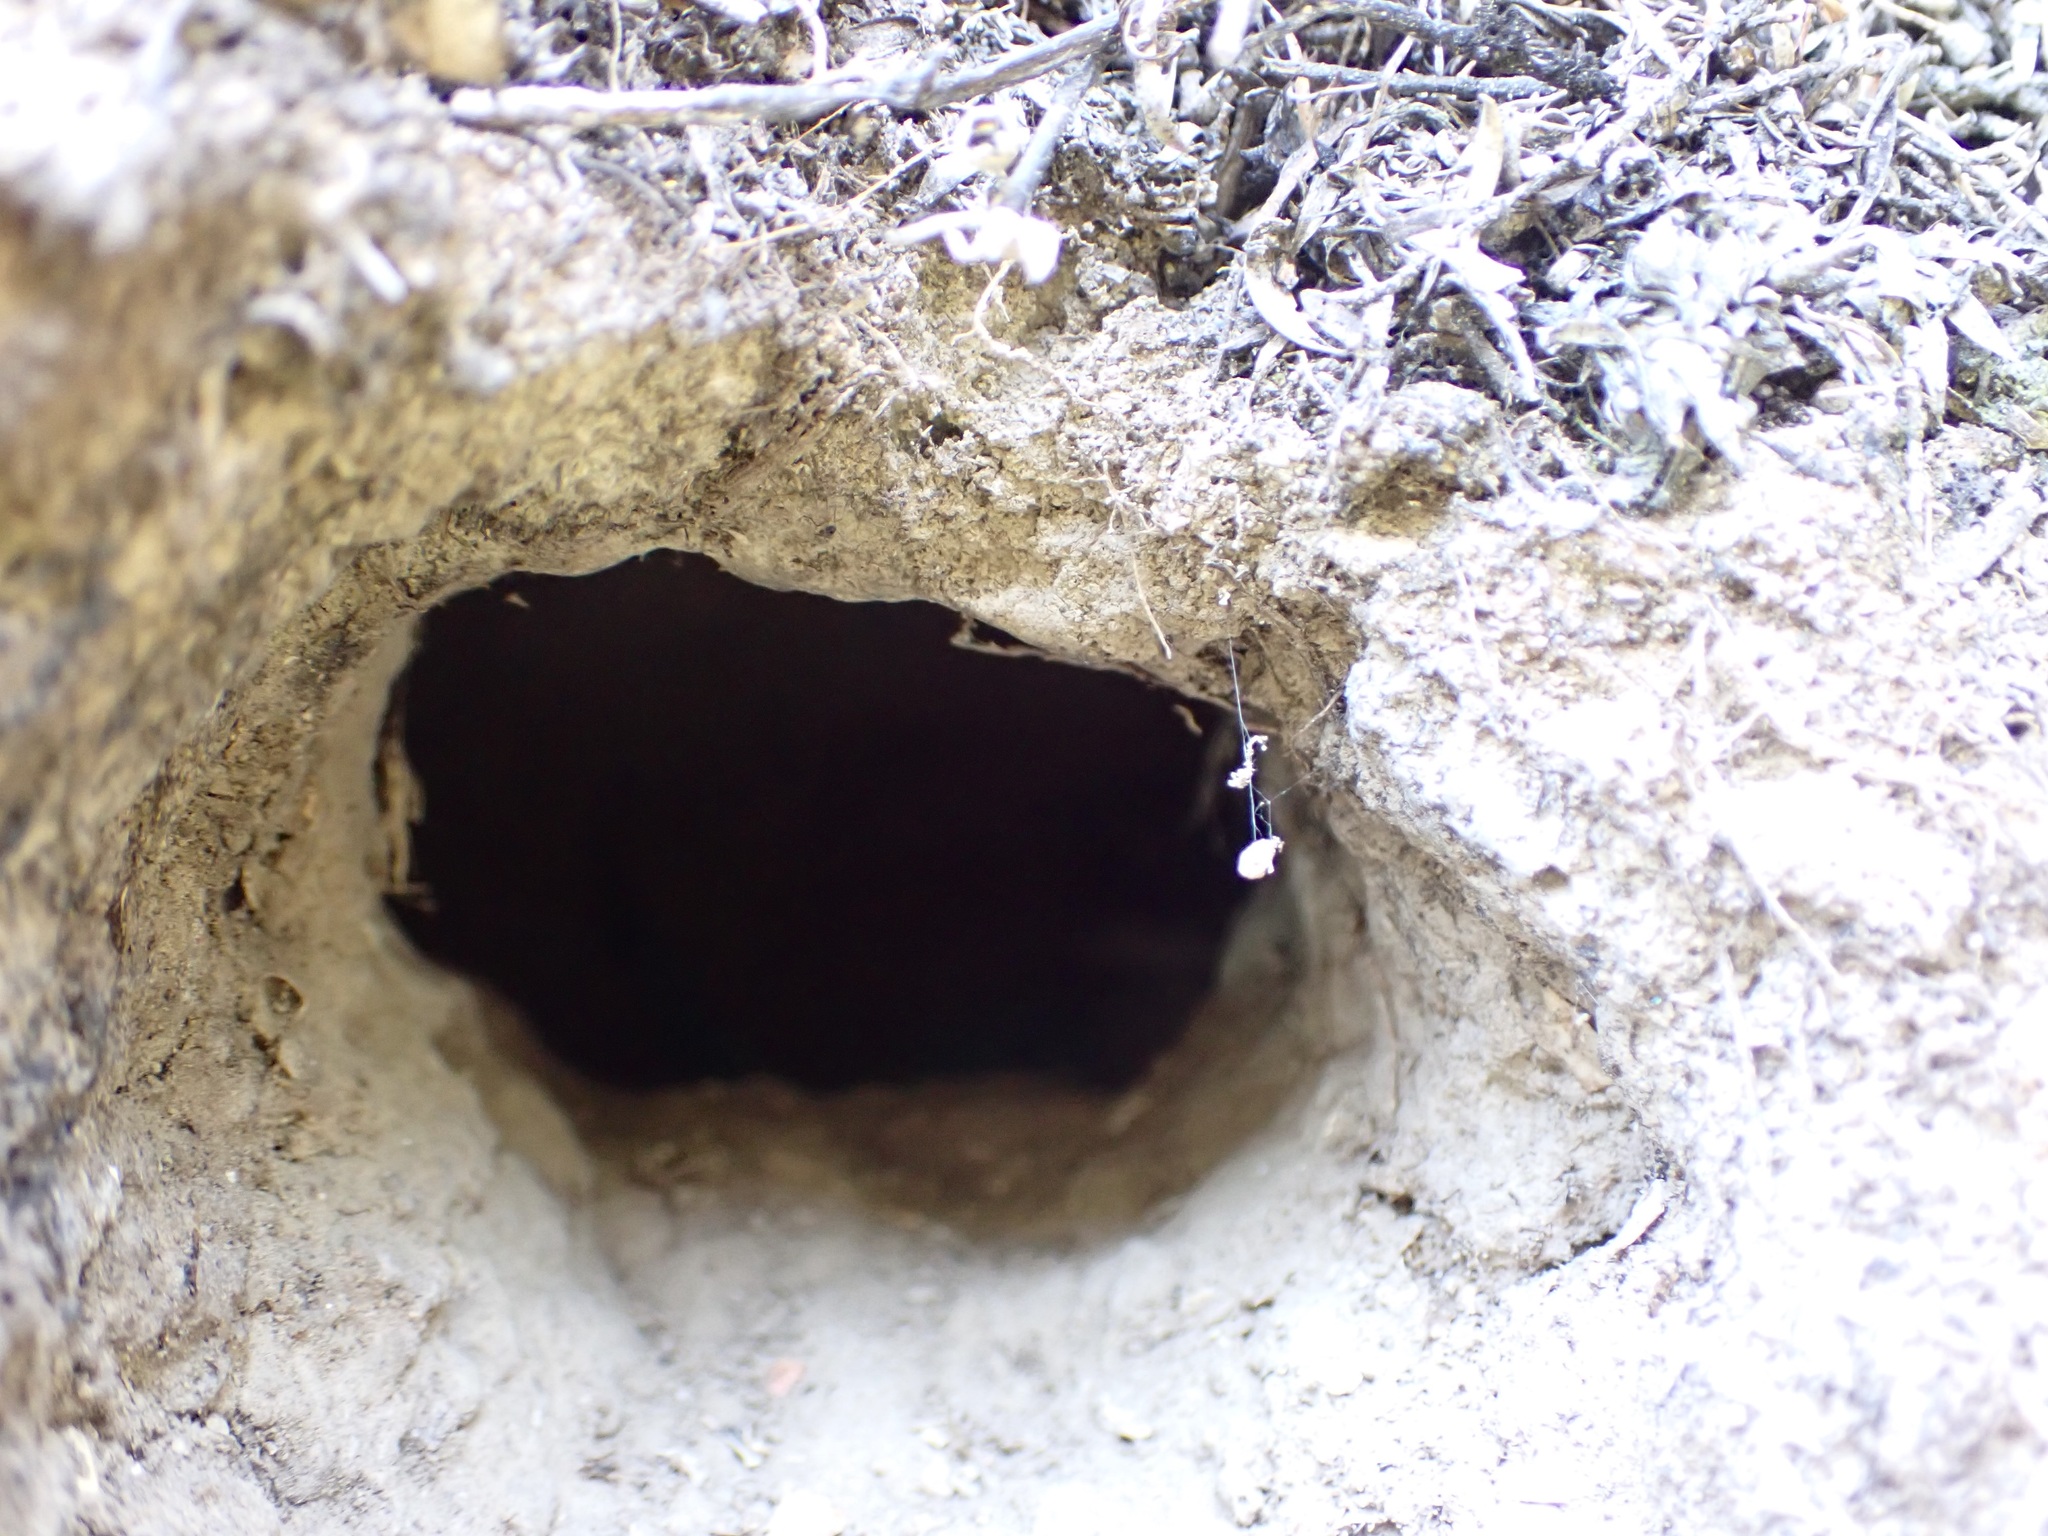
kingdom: Animalia
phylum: Chordata
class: Aves
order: Coraciiformes
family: Alcedinidae
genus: Todiramphus
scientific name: Todiramphus sanctus
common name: Sacred kingfisher
